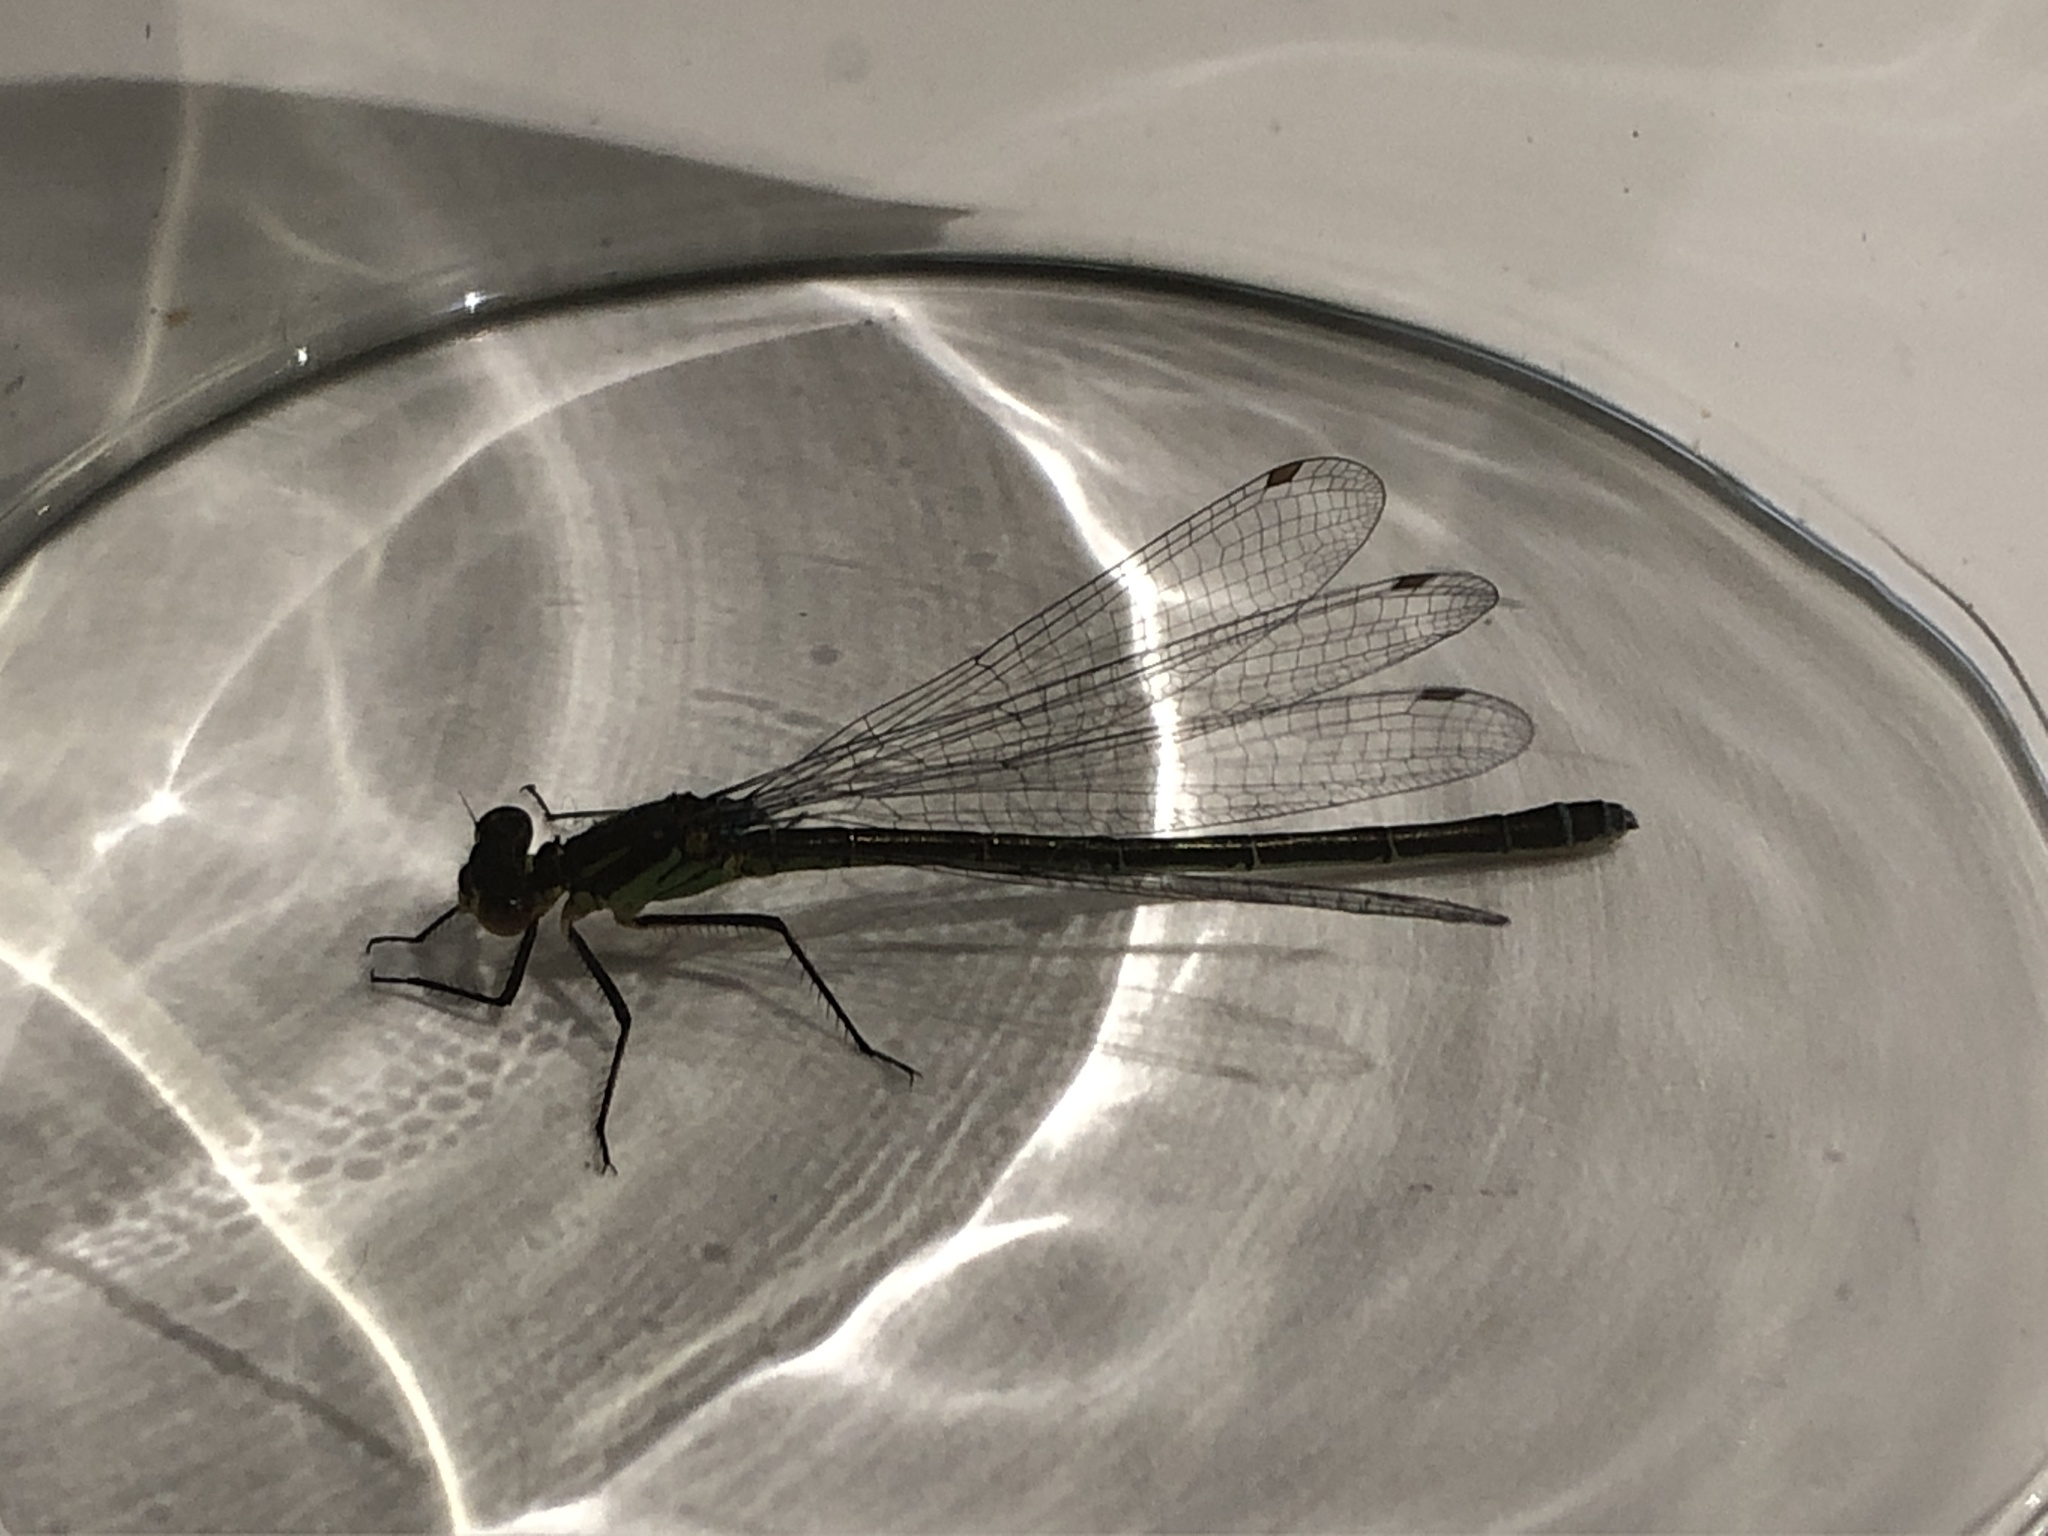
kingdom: Animalia
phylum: Arthropoda
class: Insecta
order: Odonata
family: Coenagrionidae
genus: Erythromma
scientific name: Erythromma najas
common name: Red-eyed damselfly
